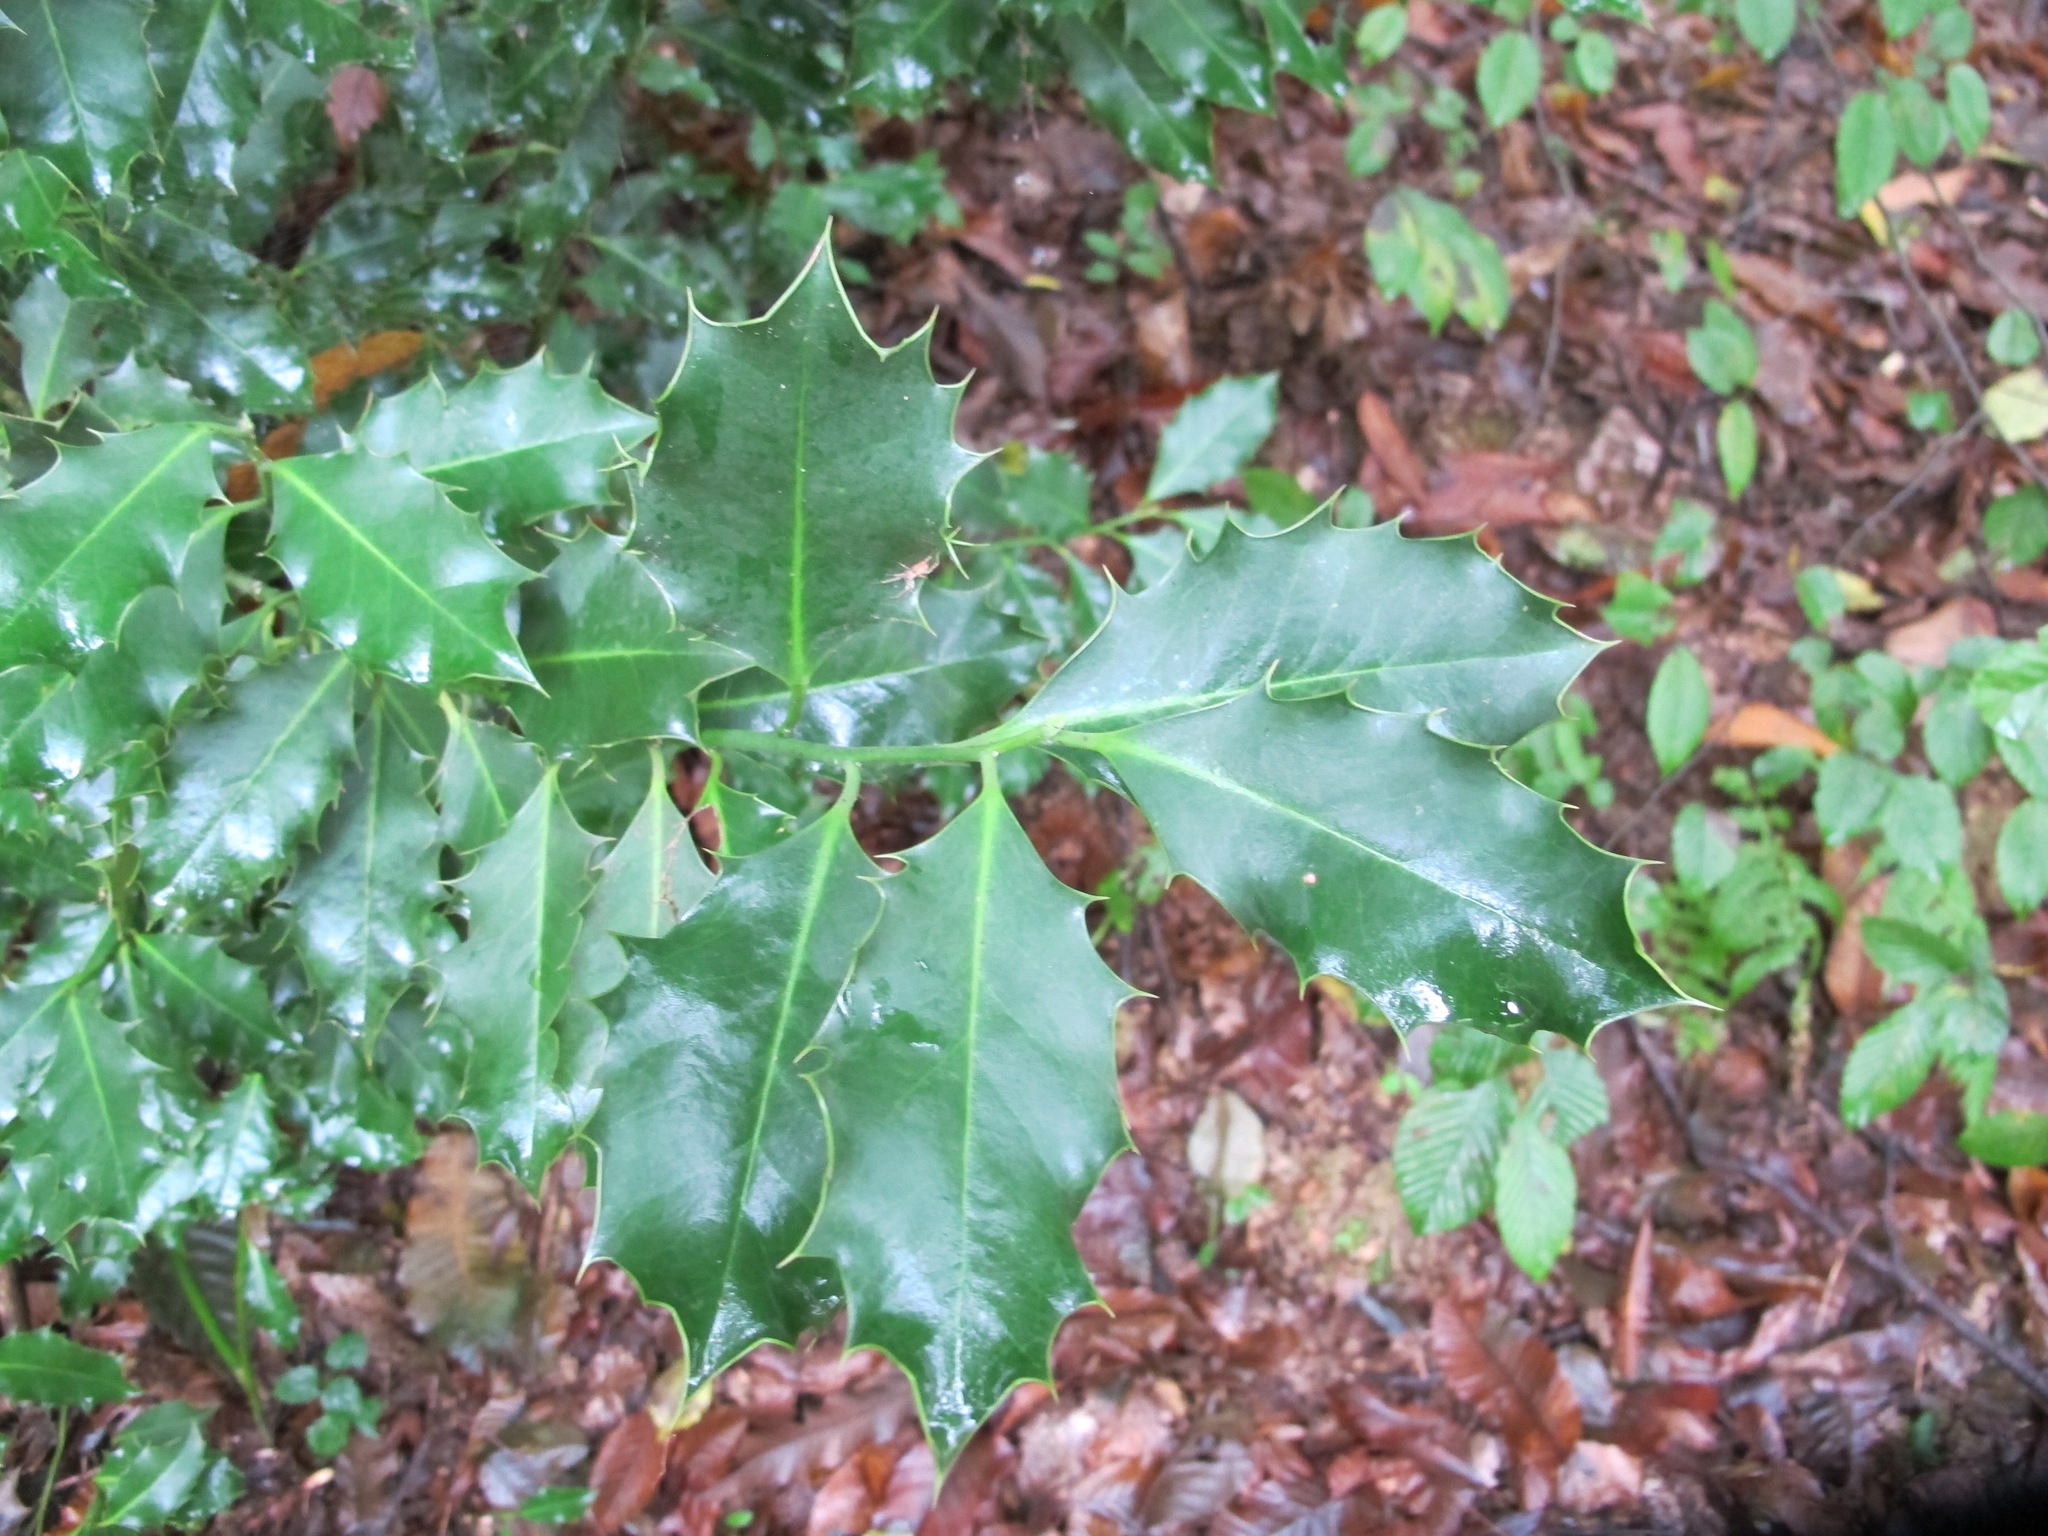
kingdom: Plantae
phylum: Tracheophyta
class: Magnoliopsida
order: Aquifoliales
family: Aquifoliaceae
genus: Ilex
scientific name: Ilex aquifolium
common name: English holly
